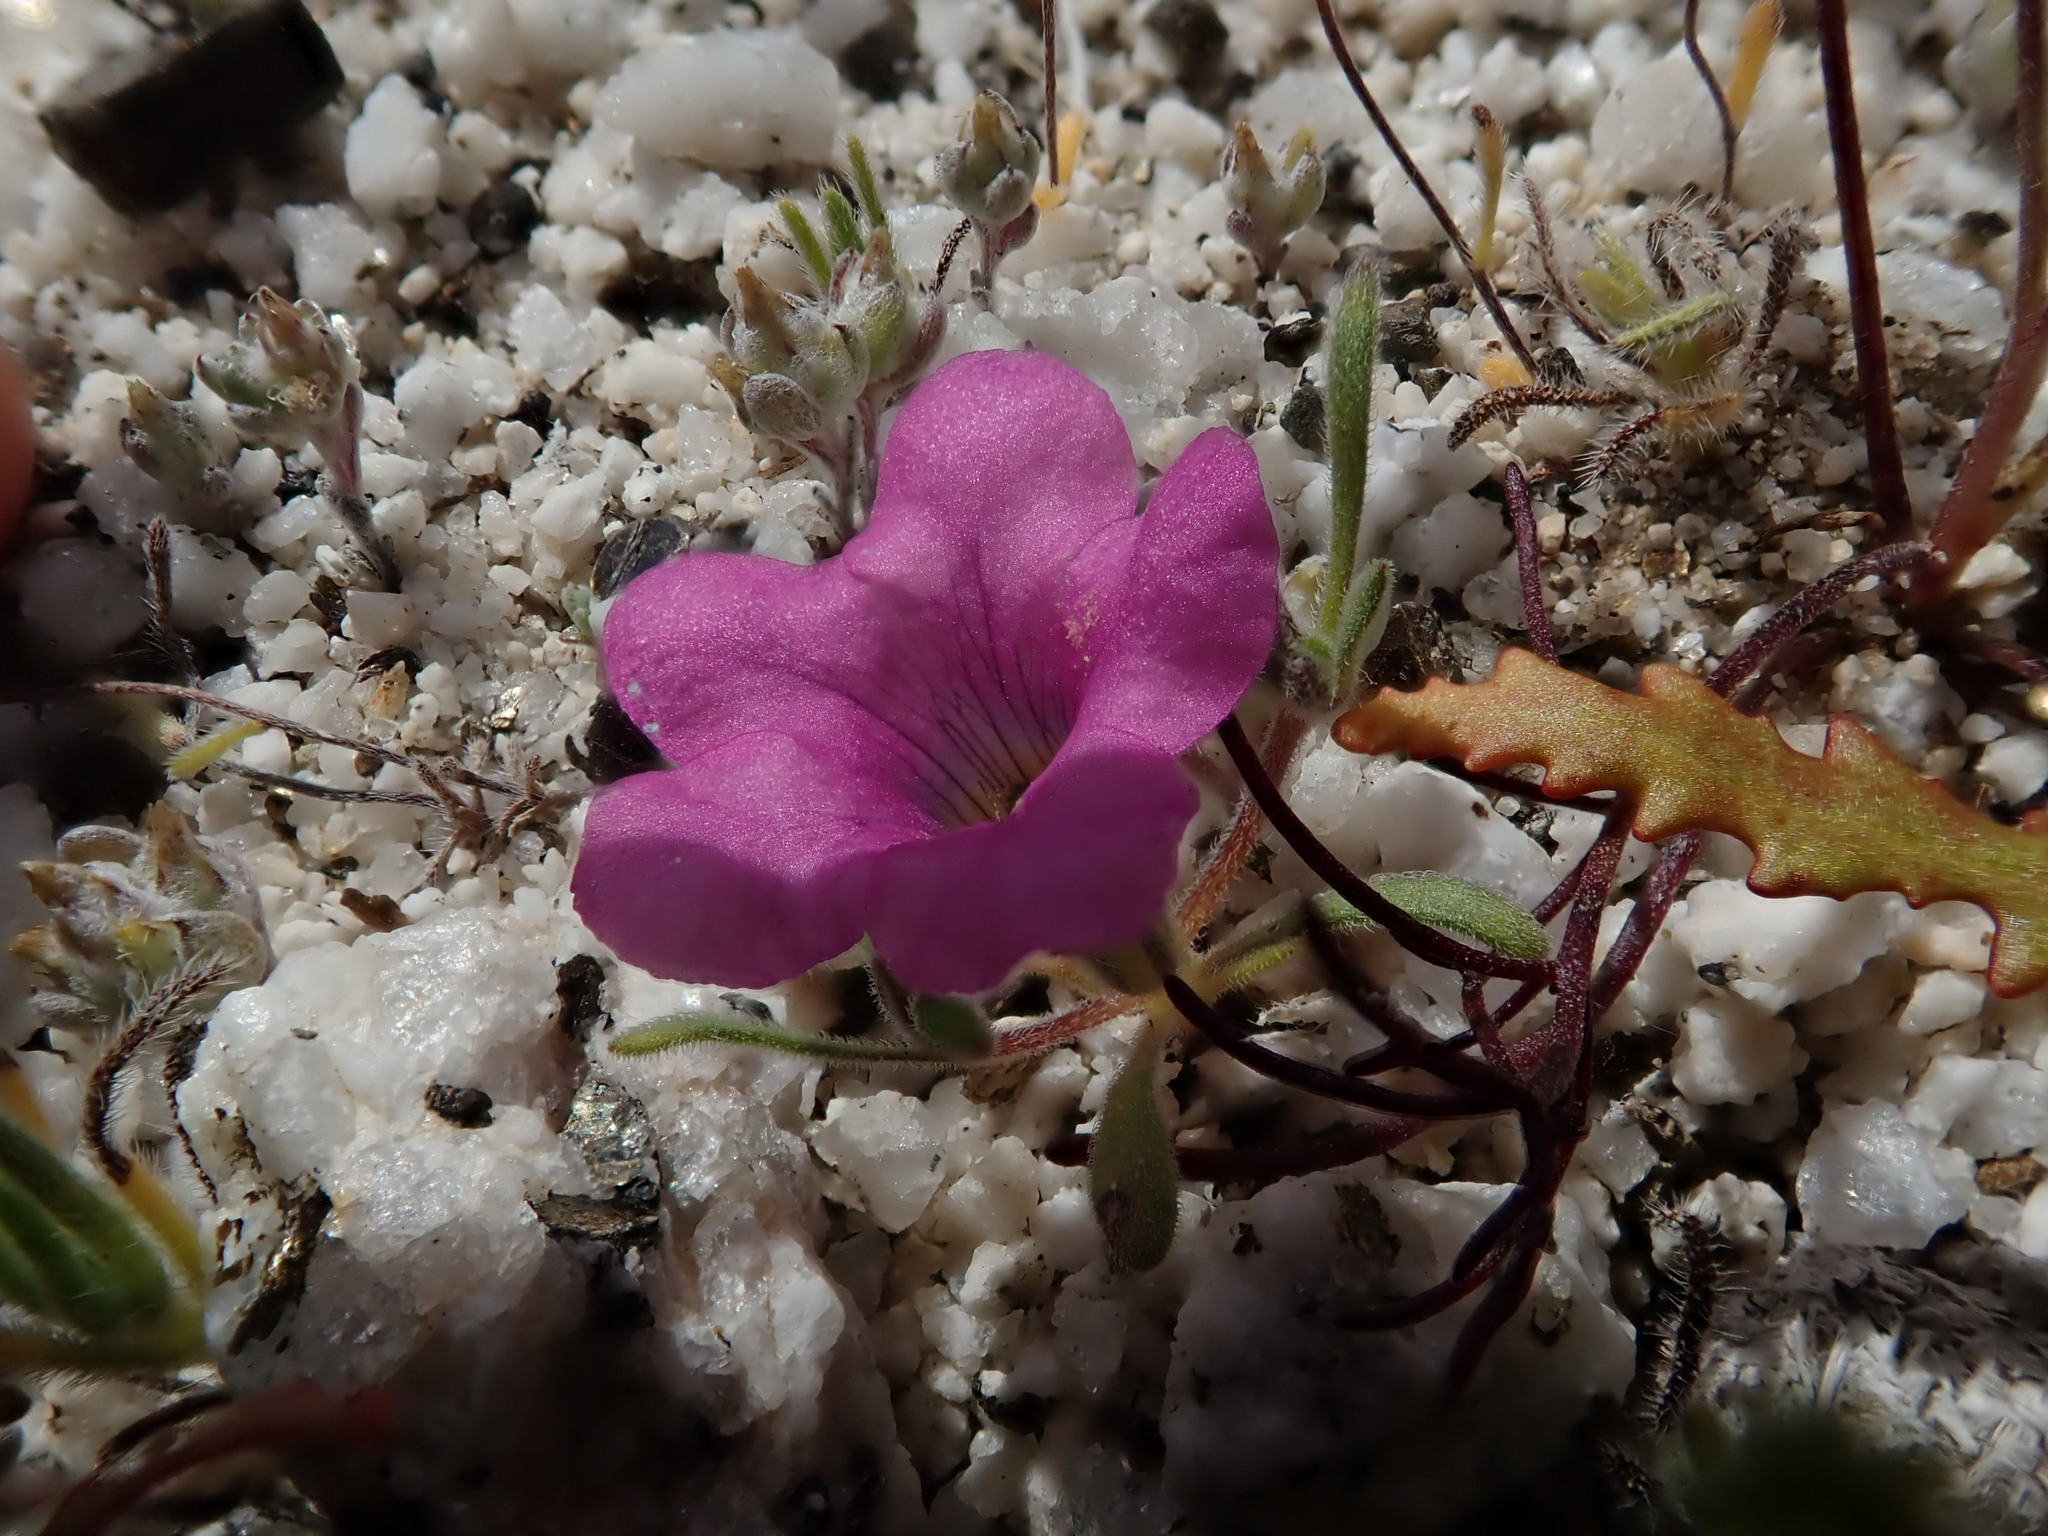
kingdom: Plantae
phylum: Tracheophyta
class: Magnoliopsida
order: Boraginales
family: Namaceae
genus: Nama
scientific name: Nama demissa
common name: Leafy nama
